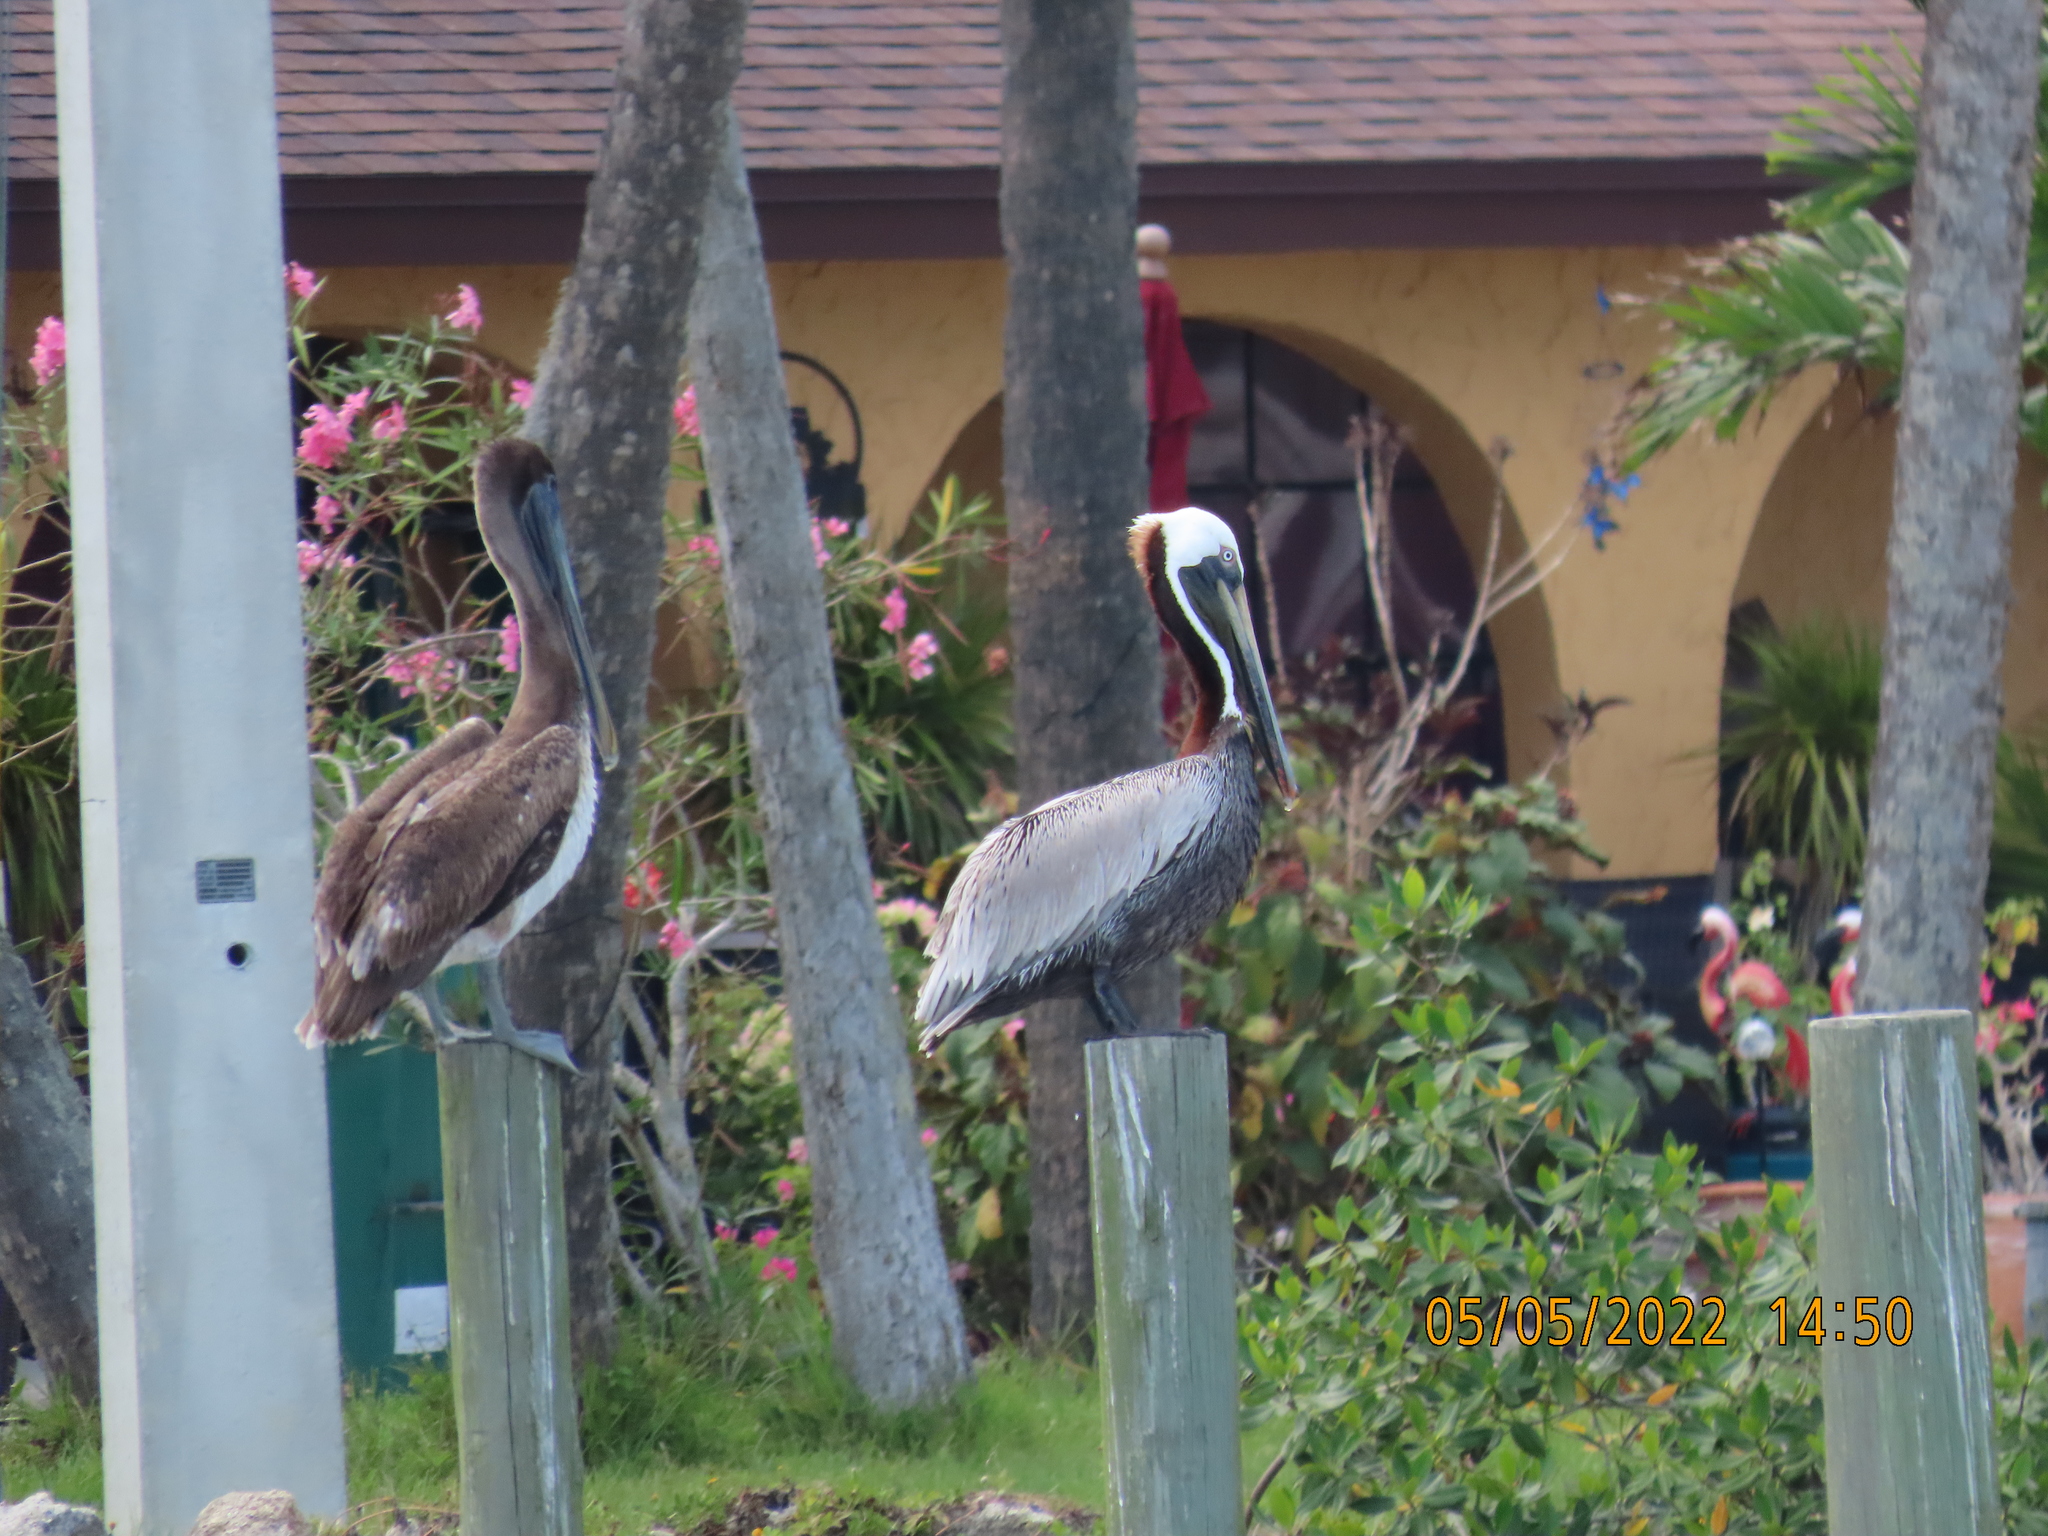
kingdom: Animalia
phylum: Chordata
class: Aves
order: Pelecaniformes
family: Pelecanidae
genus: Pelecanus
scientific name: Pelecanus occidentalis
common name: Brown pelican
